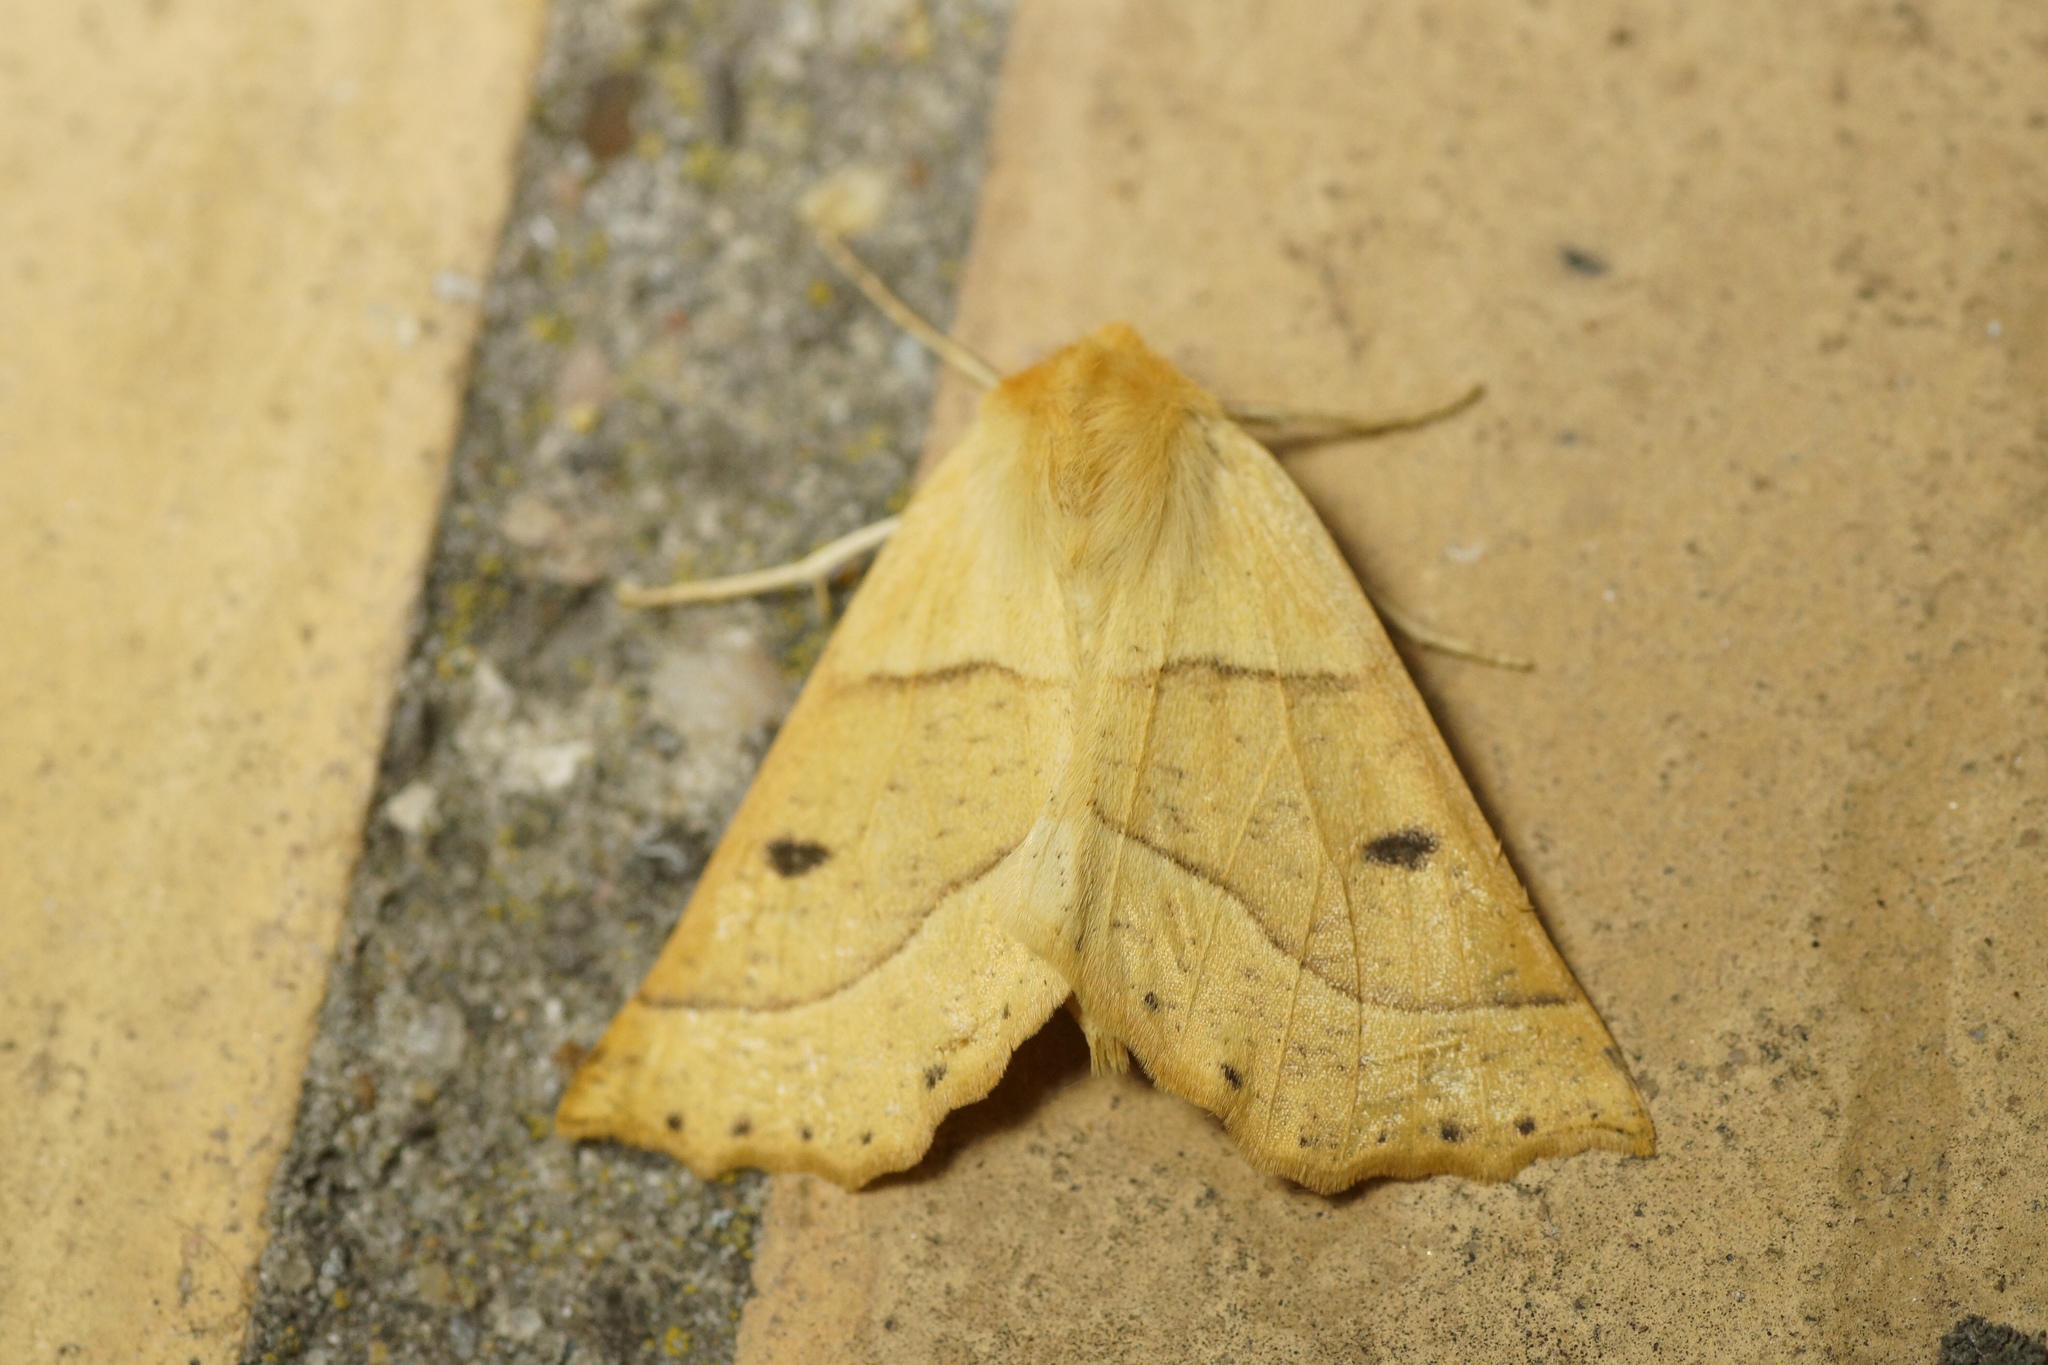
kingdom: Animalia
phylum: Arthropoda
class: Insecta
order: Lepidoptera
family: Geometridae
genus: Crocallis
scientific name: Crocallis elinguaria
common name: Scalloped oak
